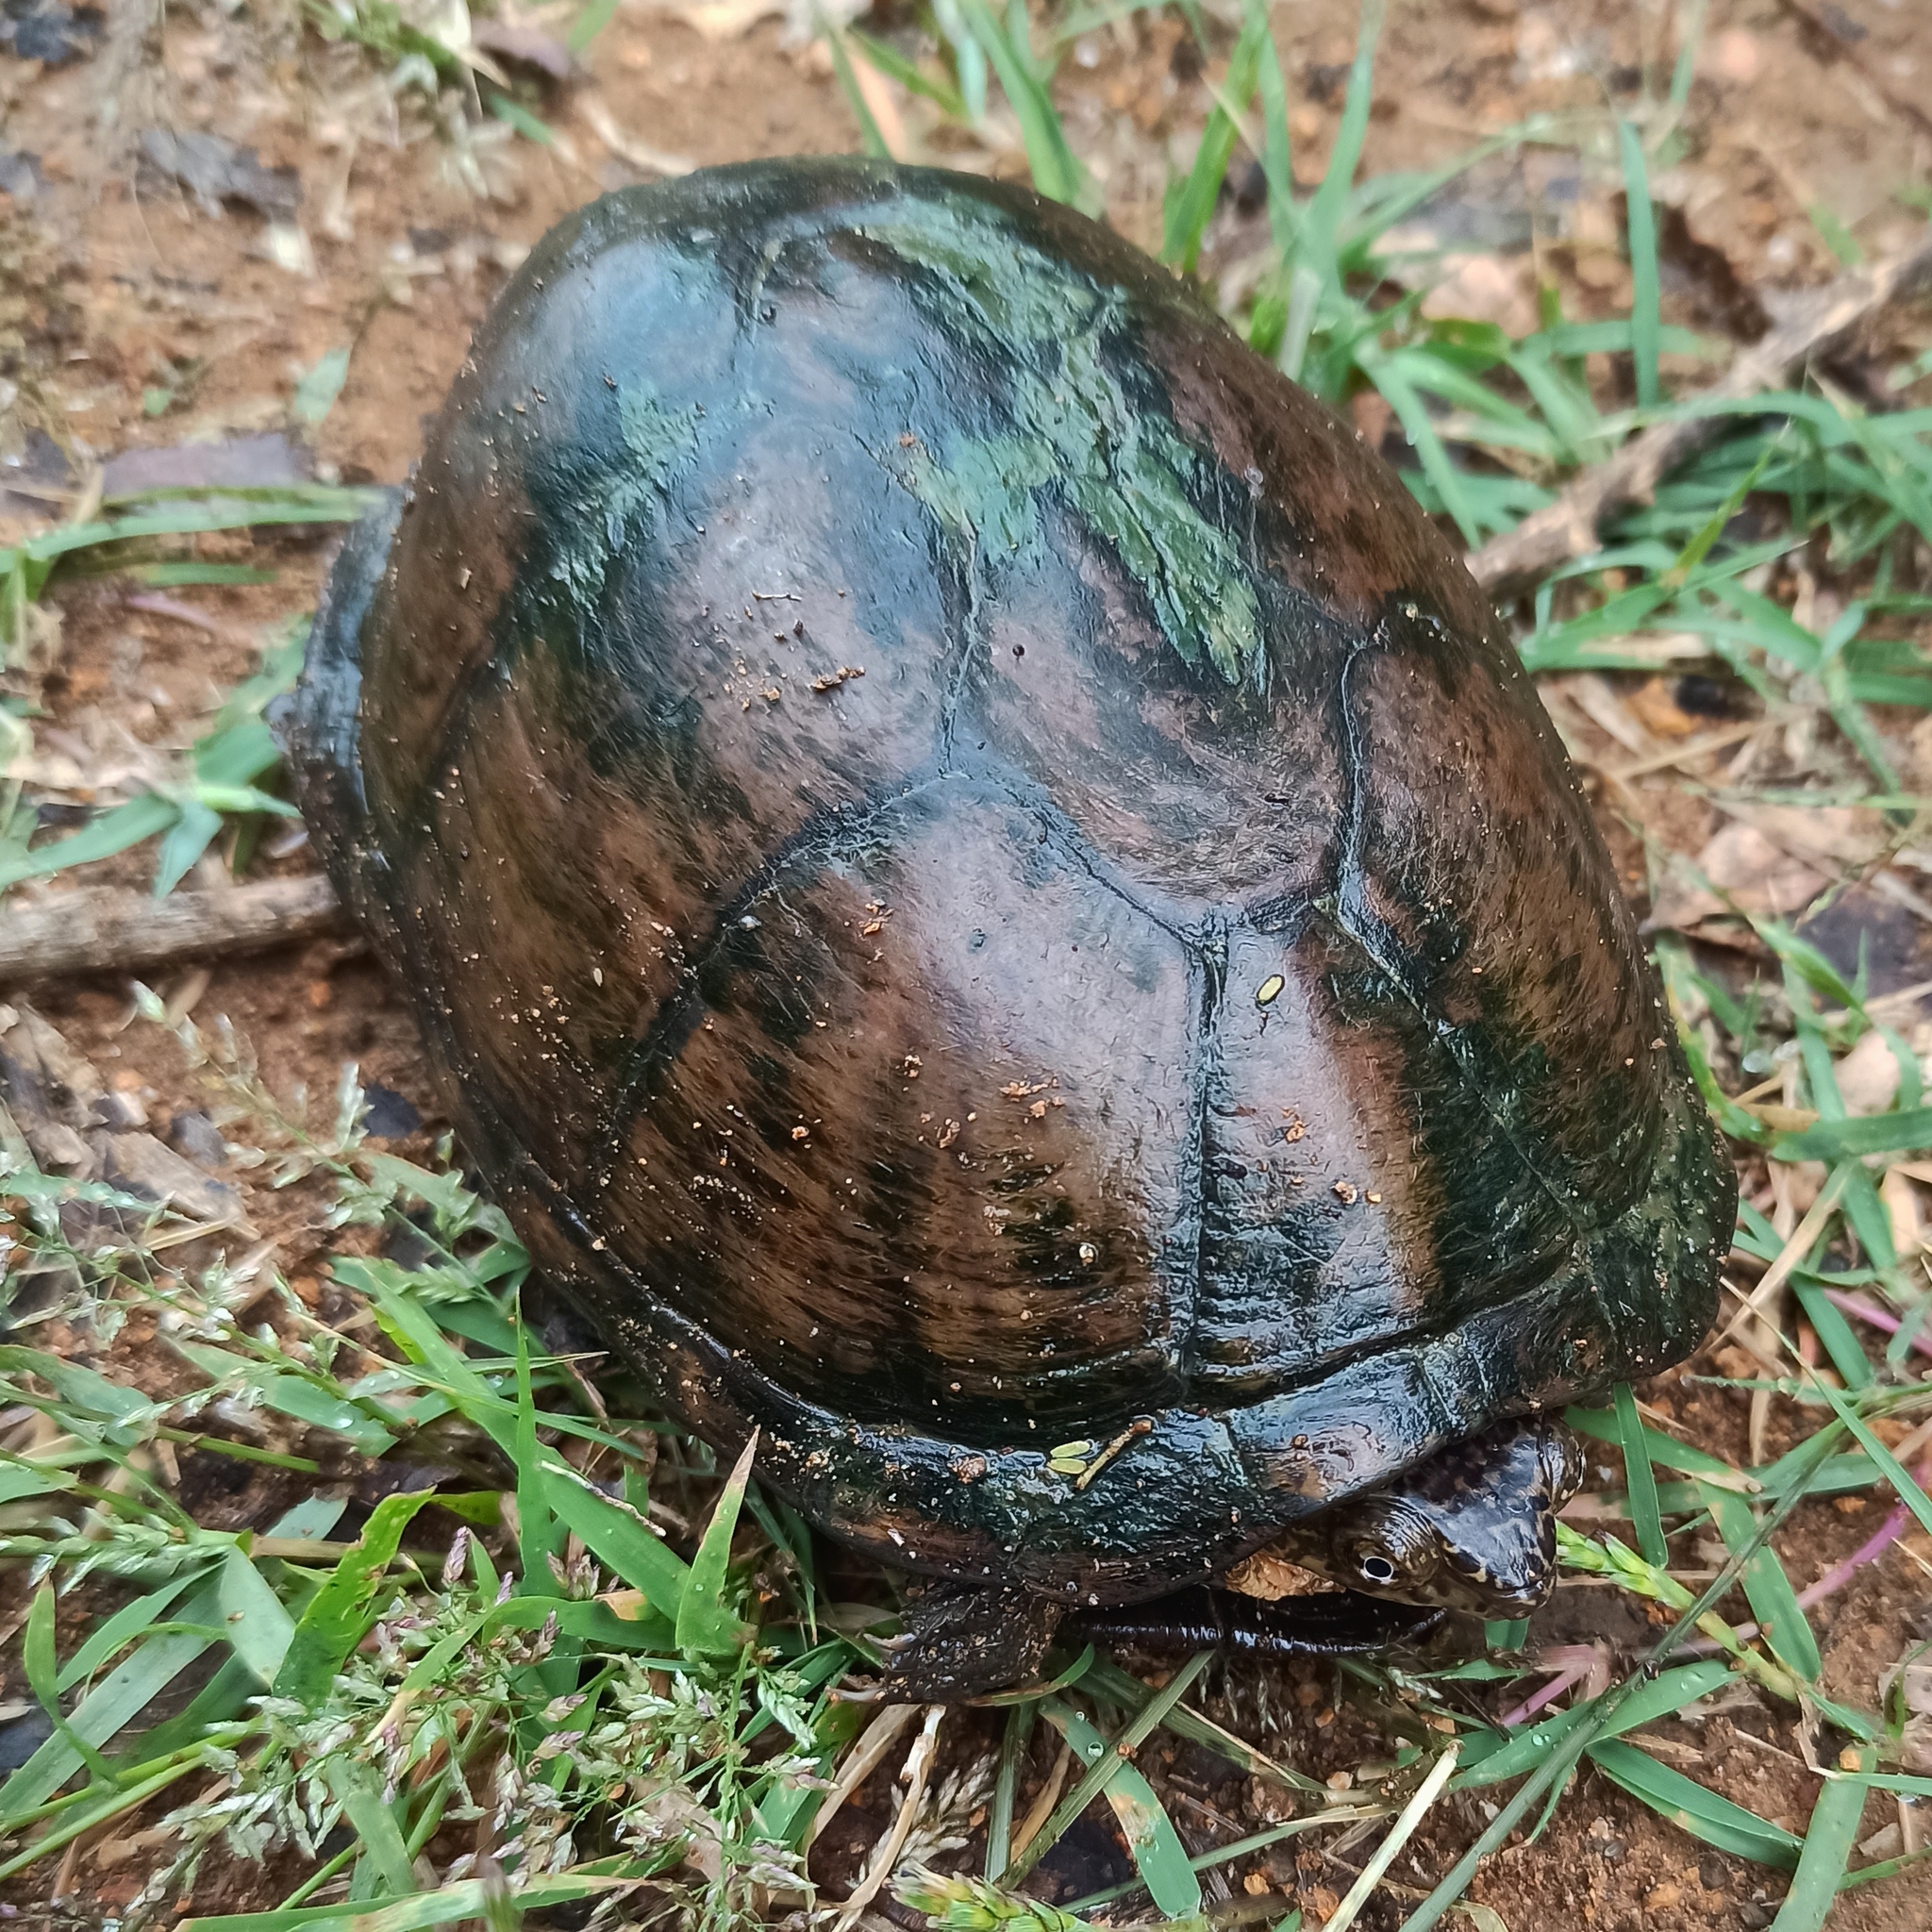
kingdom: Animalia
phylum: Chordata
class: Testudines
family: Kinosternidae
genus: Kinosternon
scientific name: Kinosternon integrum
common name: Mexican mud turtle
